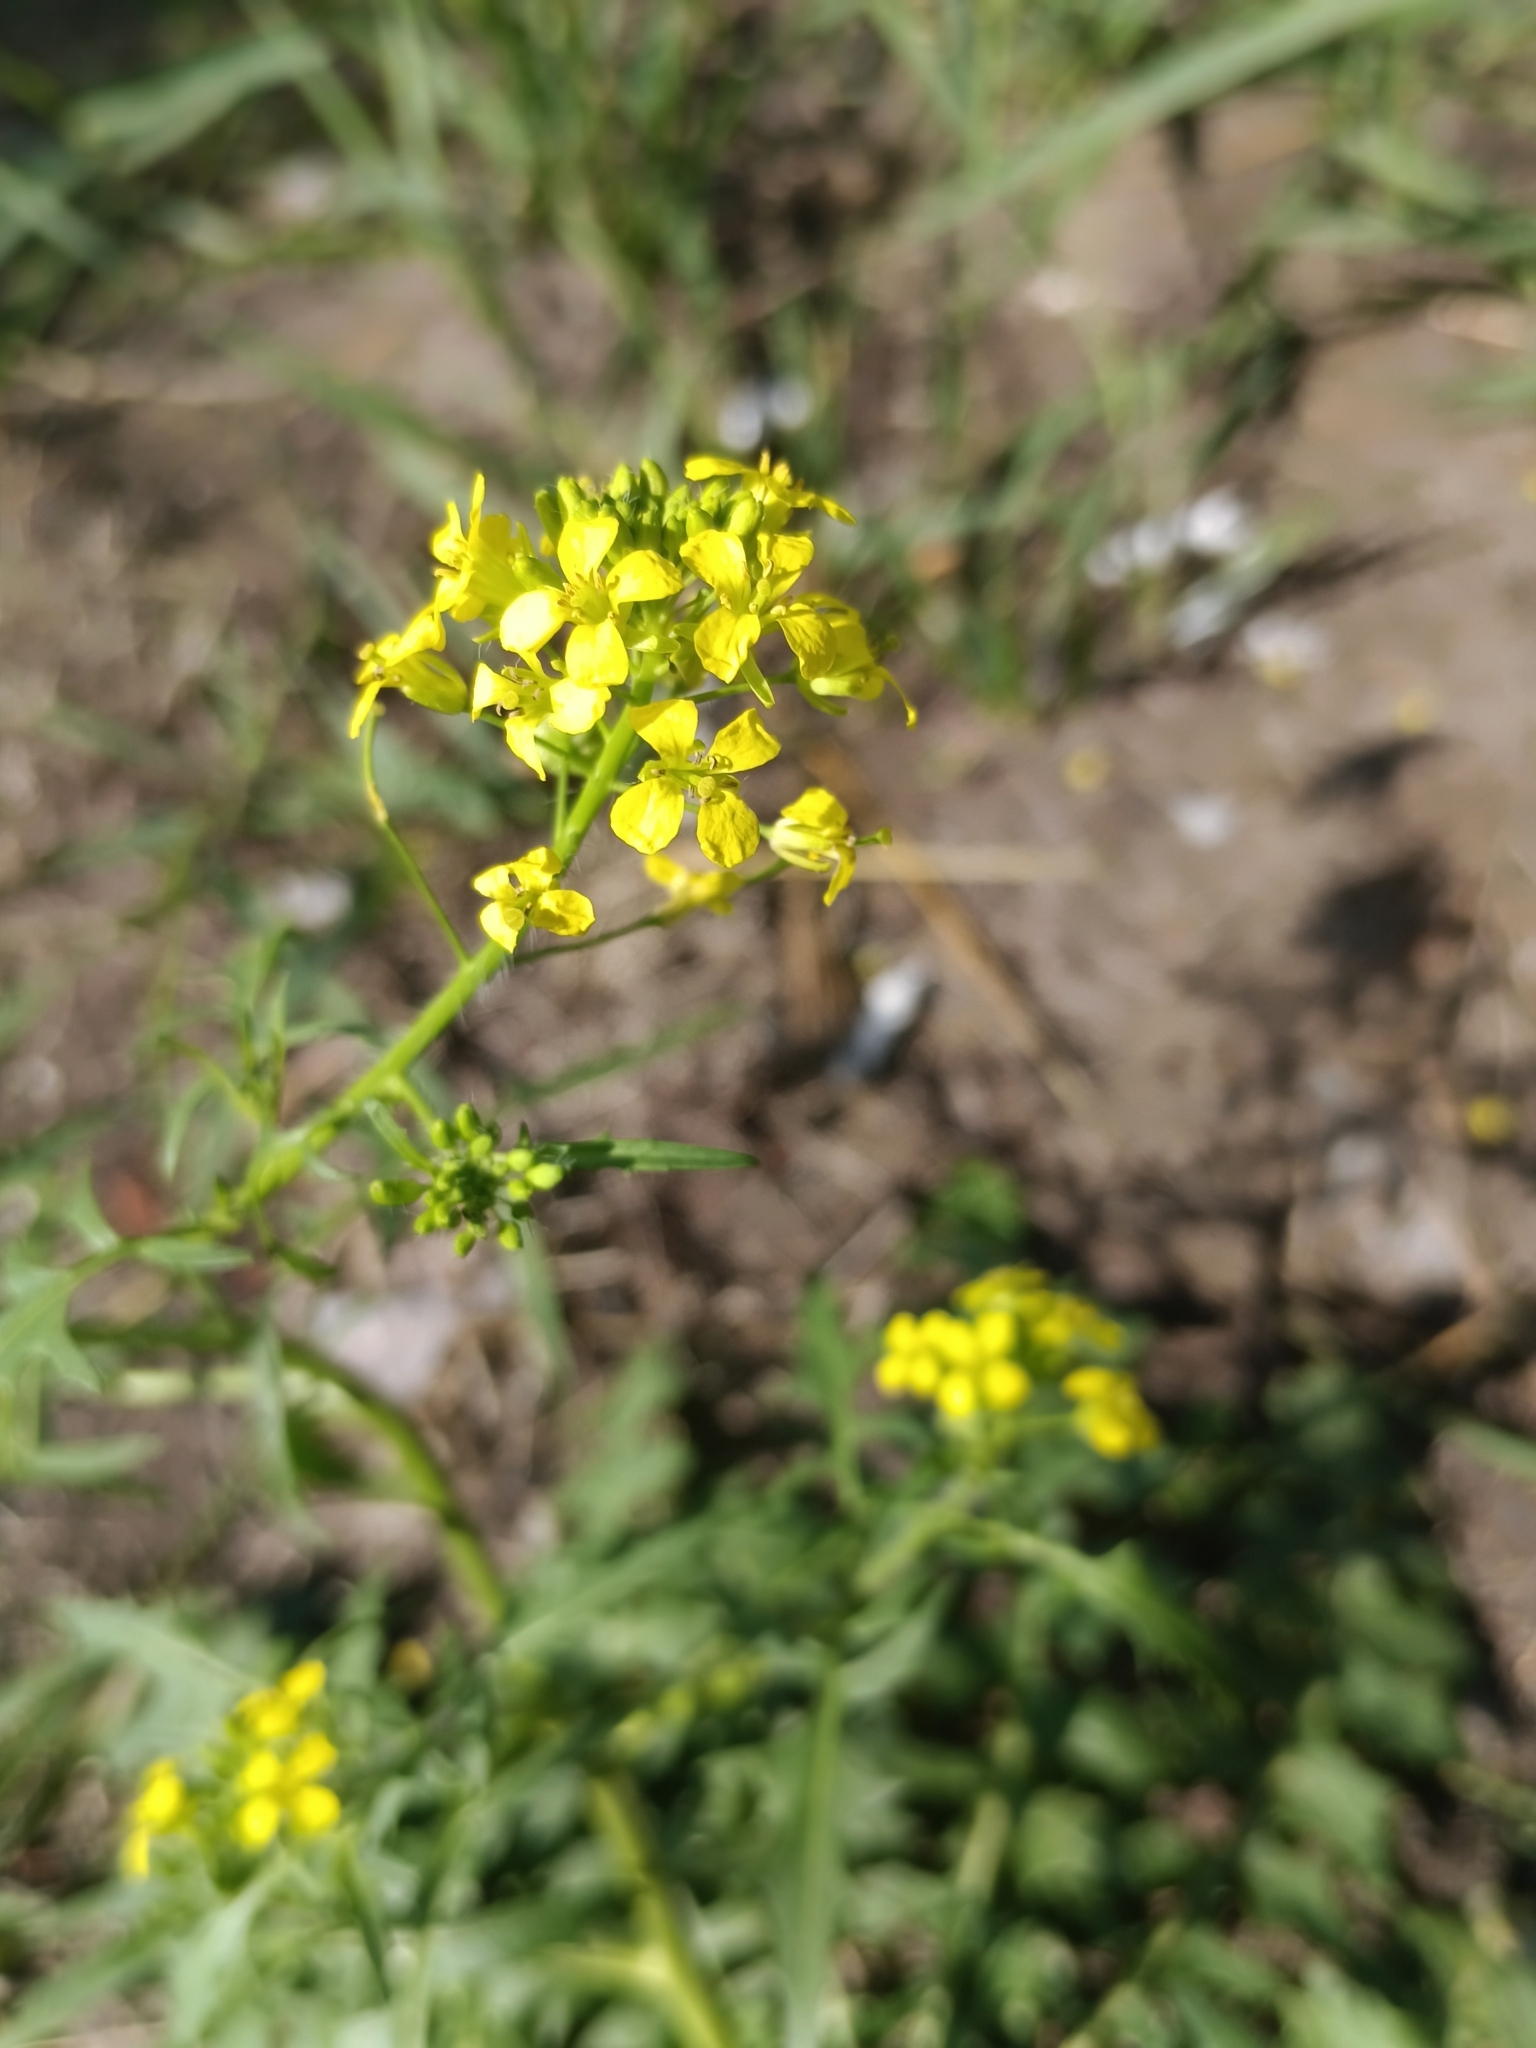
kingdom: Plantae
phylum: Tracheophyta
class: Magnoliopsida
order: Brassicales
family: Brassicaceae
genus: Sisymbrium
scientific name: Sisymbrium loeselii
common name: False london-rocket
